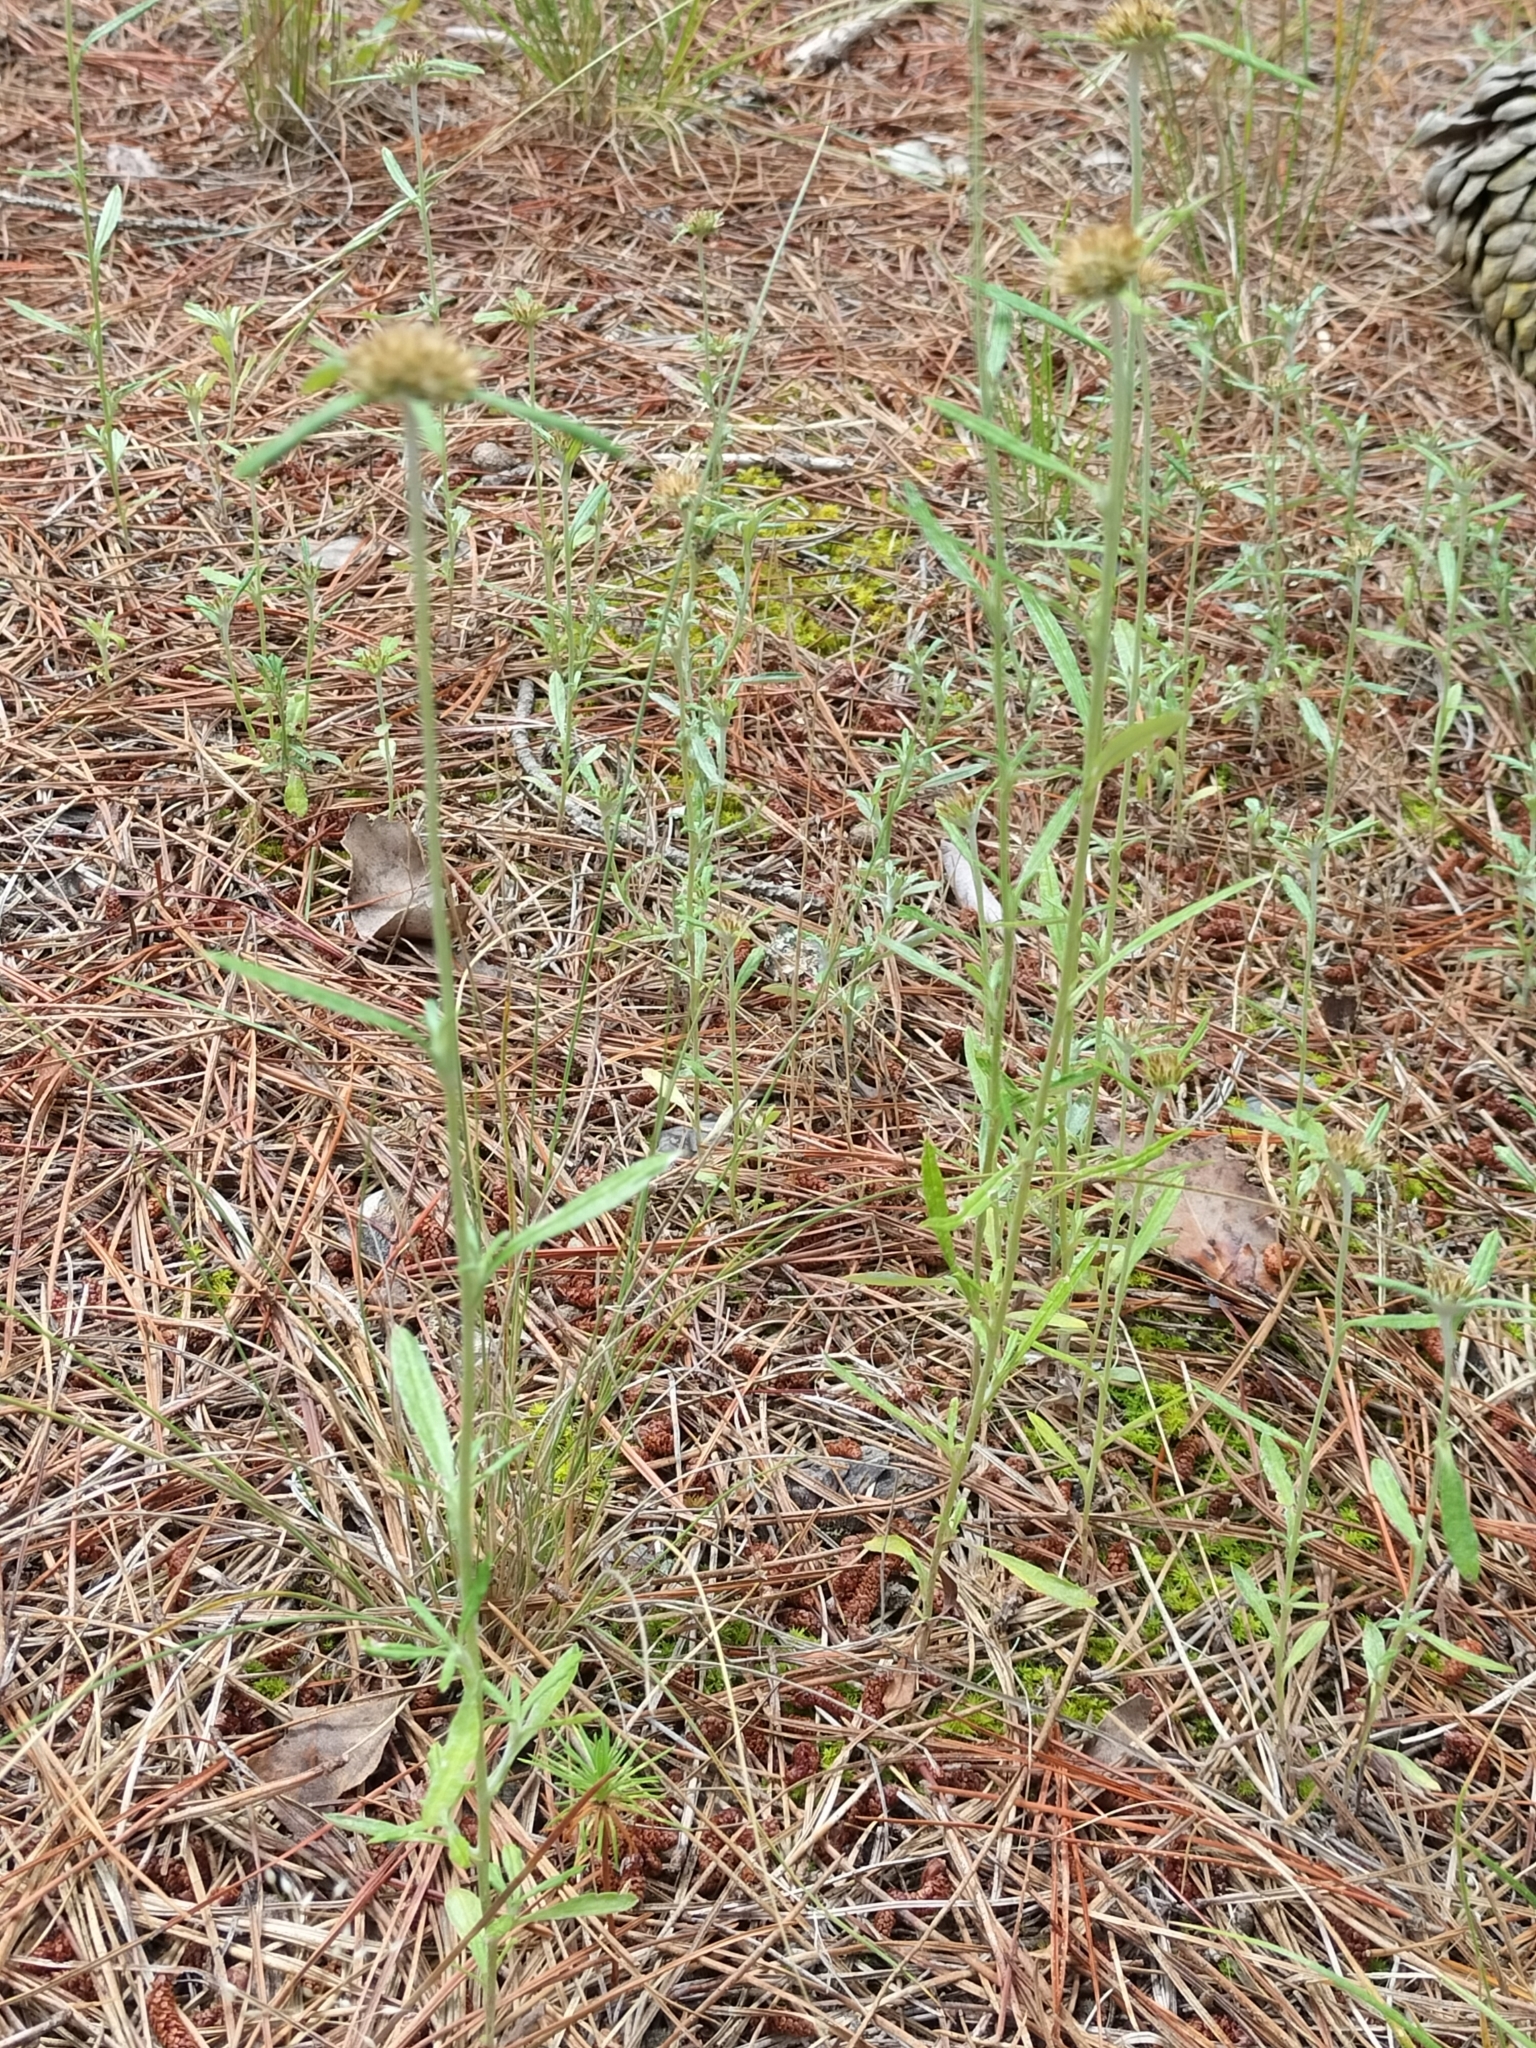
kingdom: Plantae
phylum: Tracheophyta
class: Magnoliopsida
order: Asterales
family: Asteraceae
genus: Euchiton
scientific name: Euchiton sphaericus
